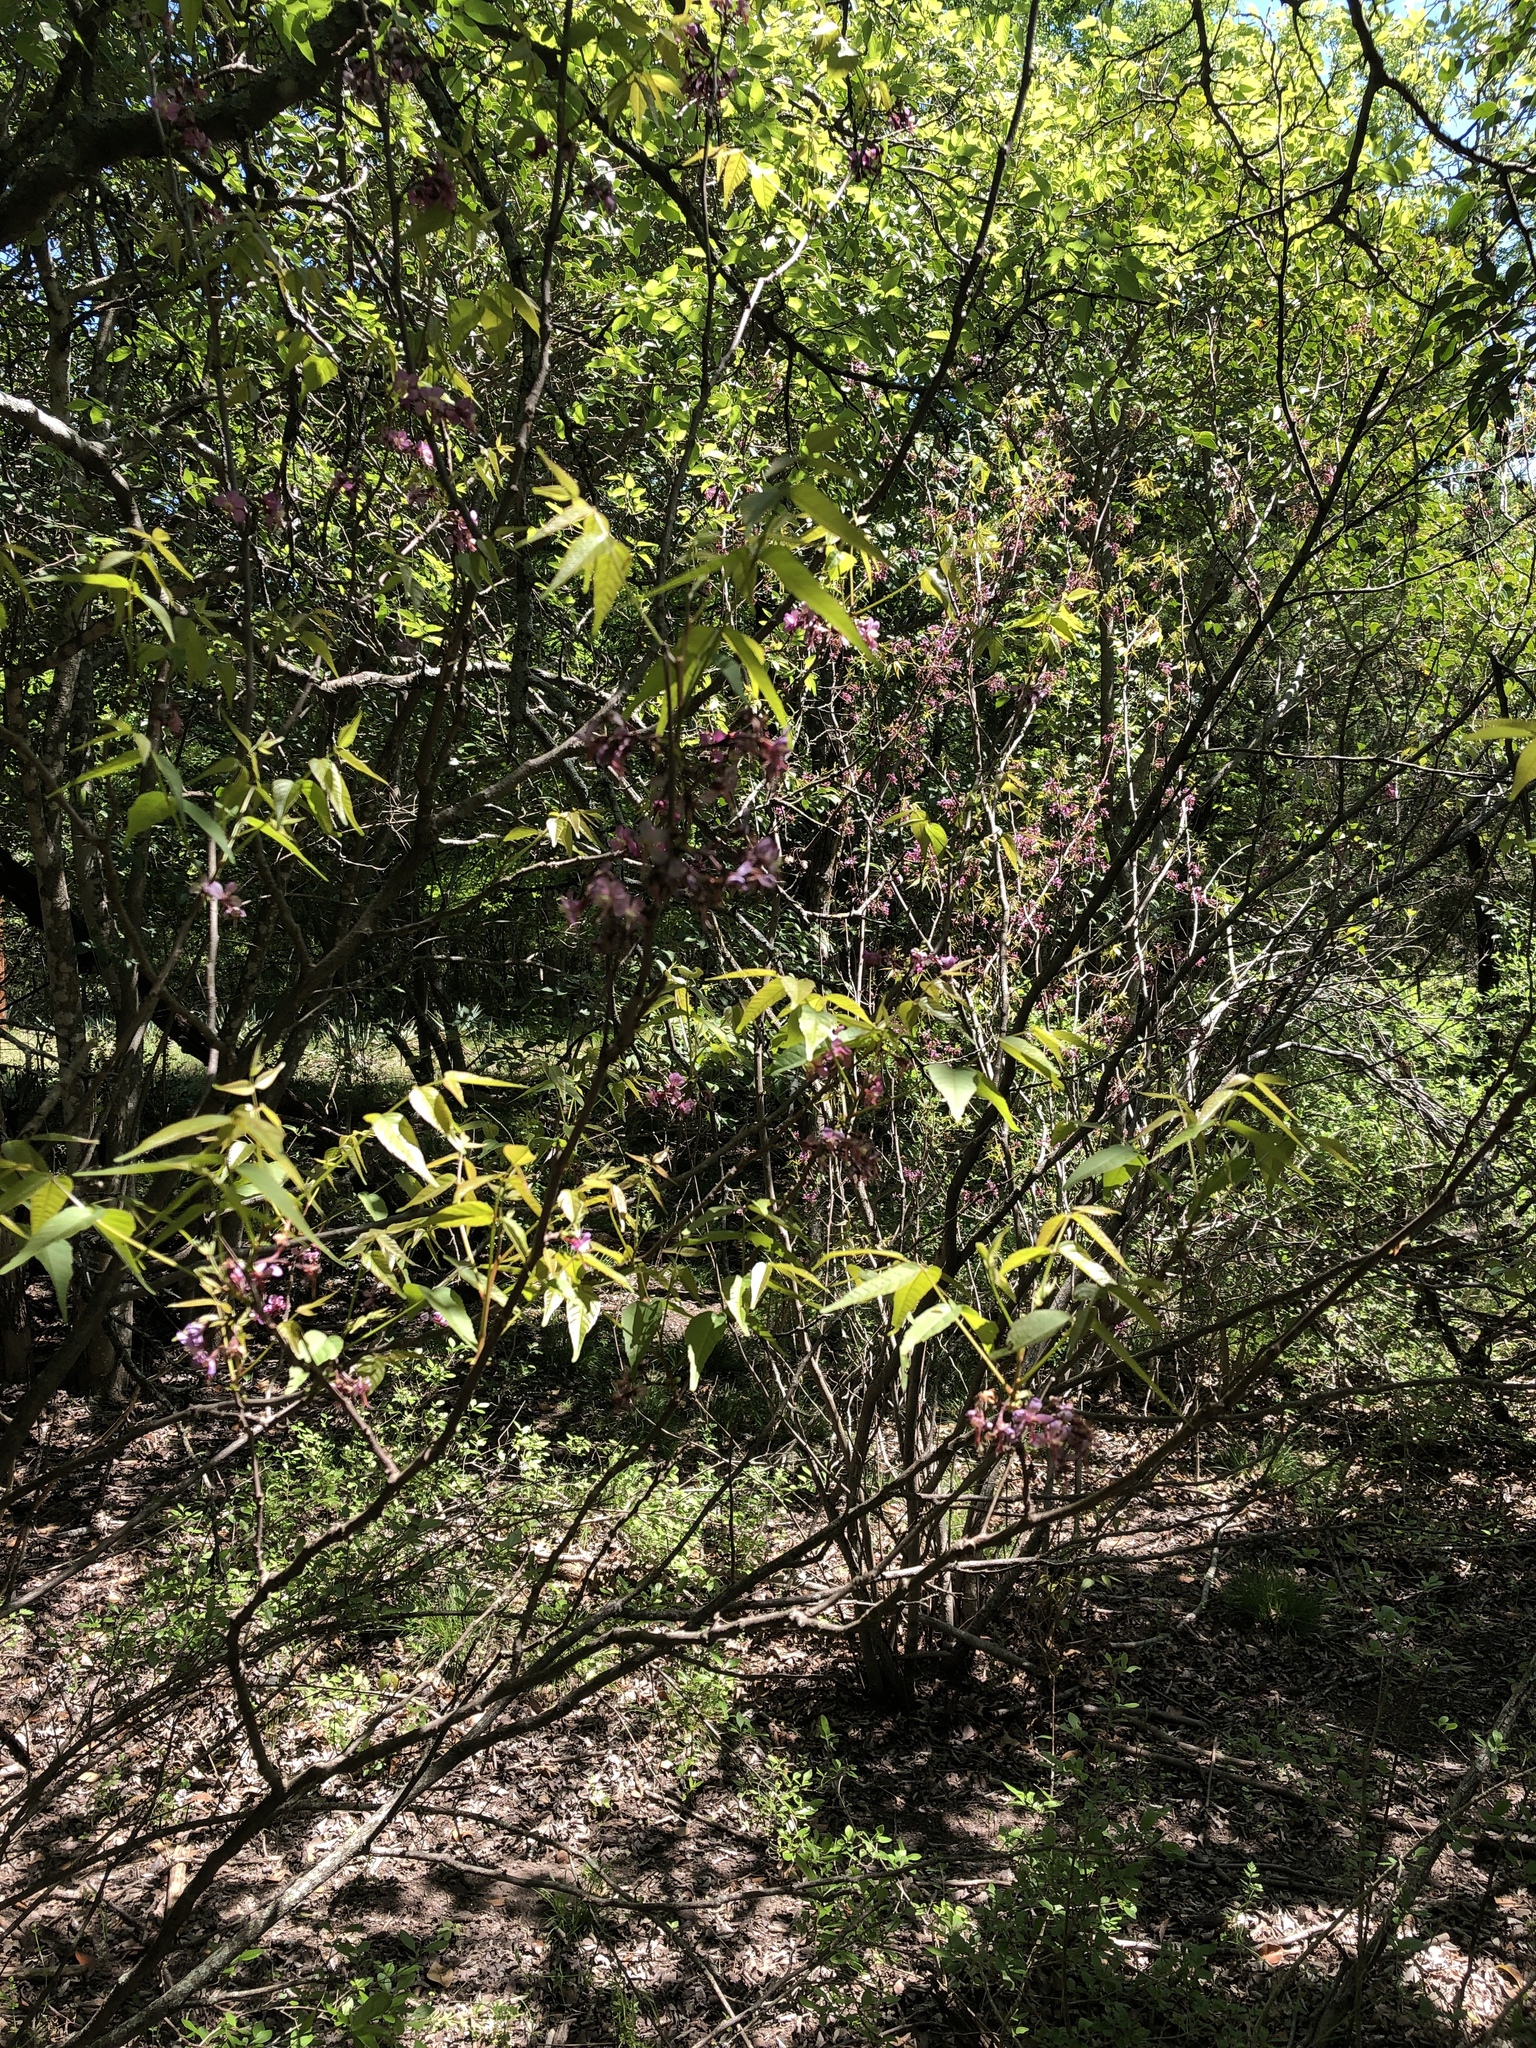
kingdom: Plantae
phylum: Tracheophyta
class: Magnoliopsida
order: Sapindales
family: Sapindaceae
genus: Ungnadia
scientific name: Ungnadia speciosa
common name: Texas-buckeye
